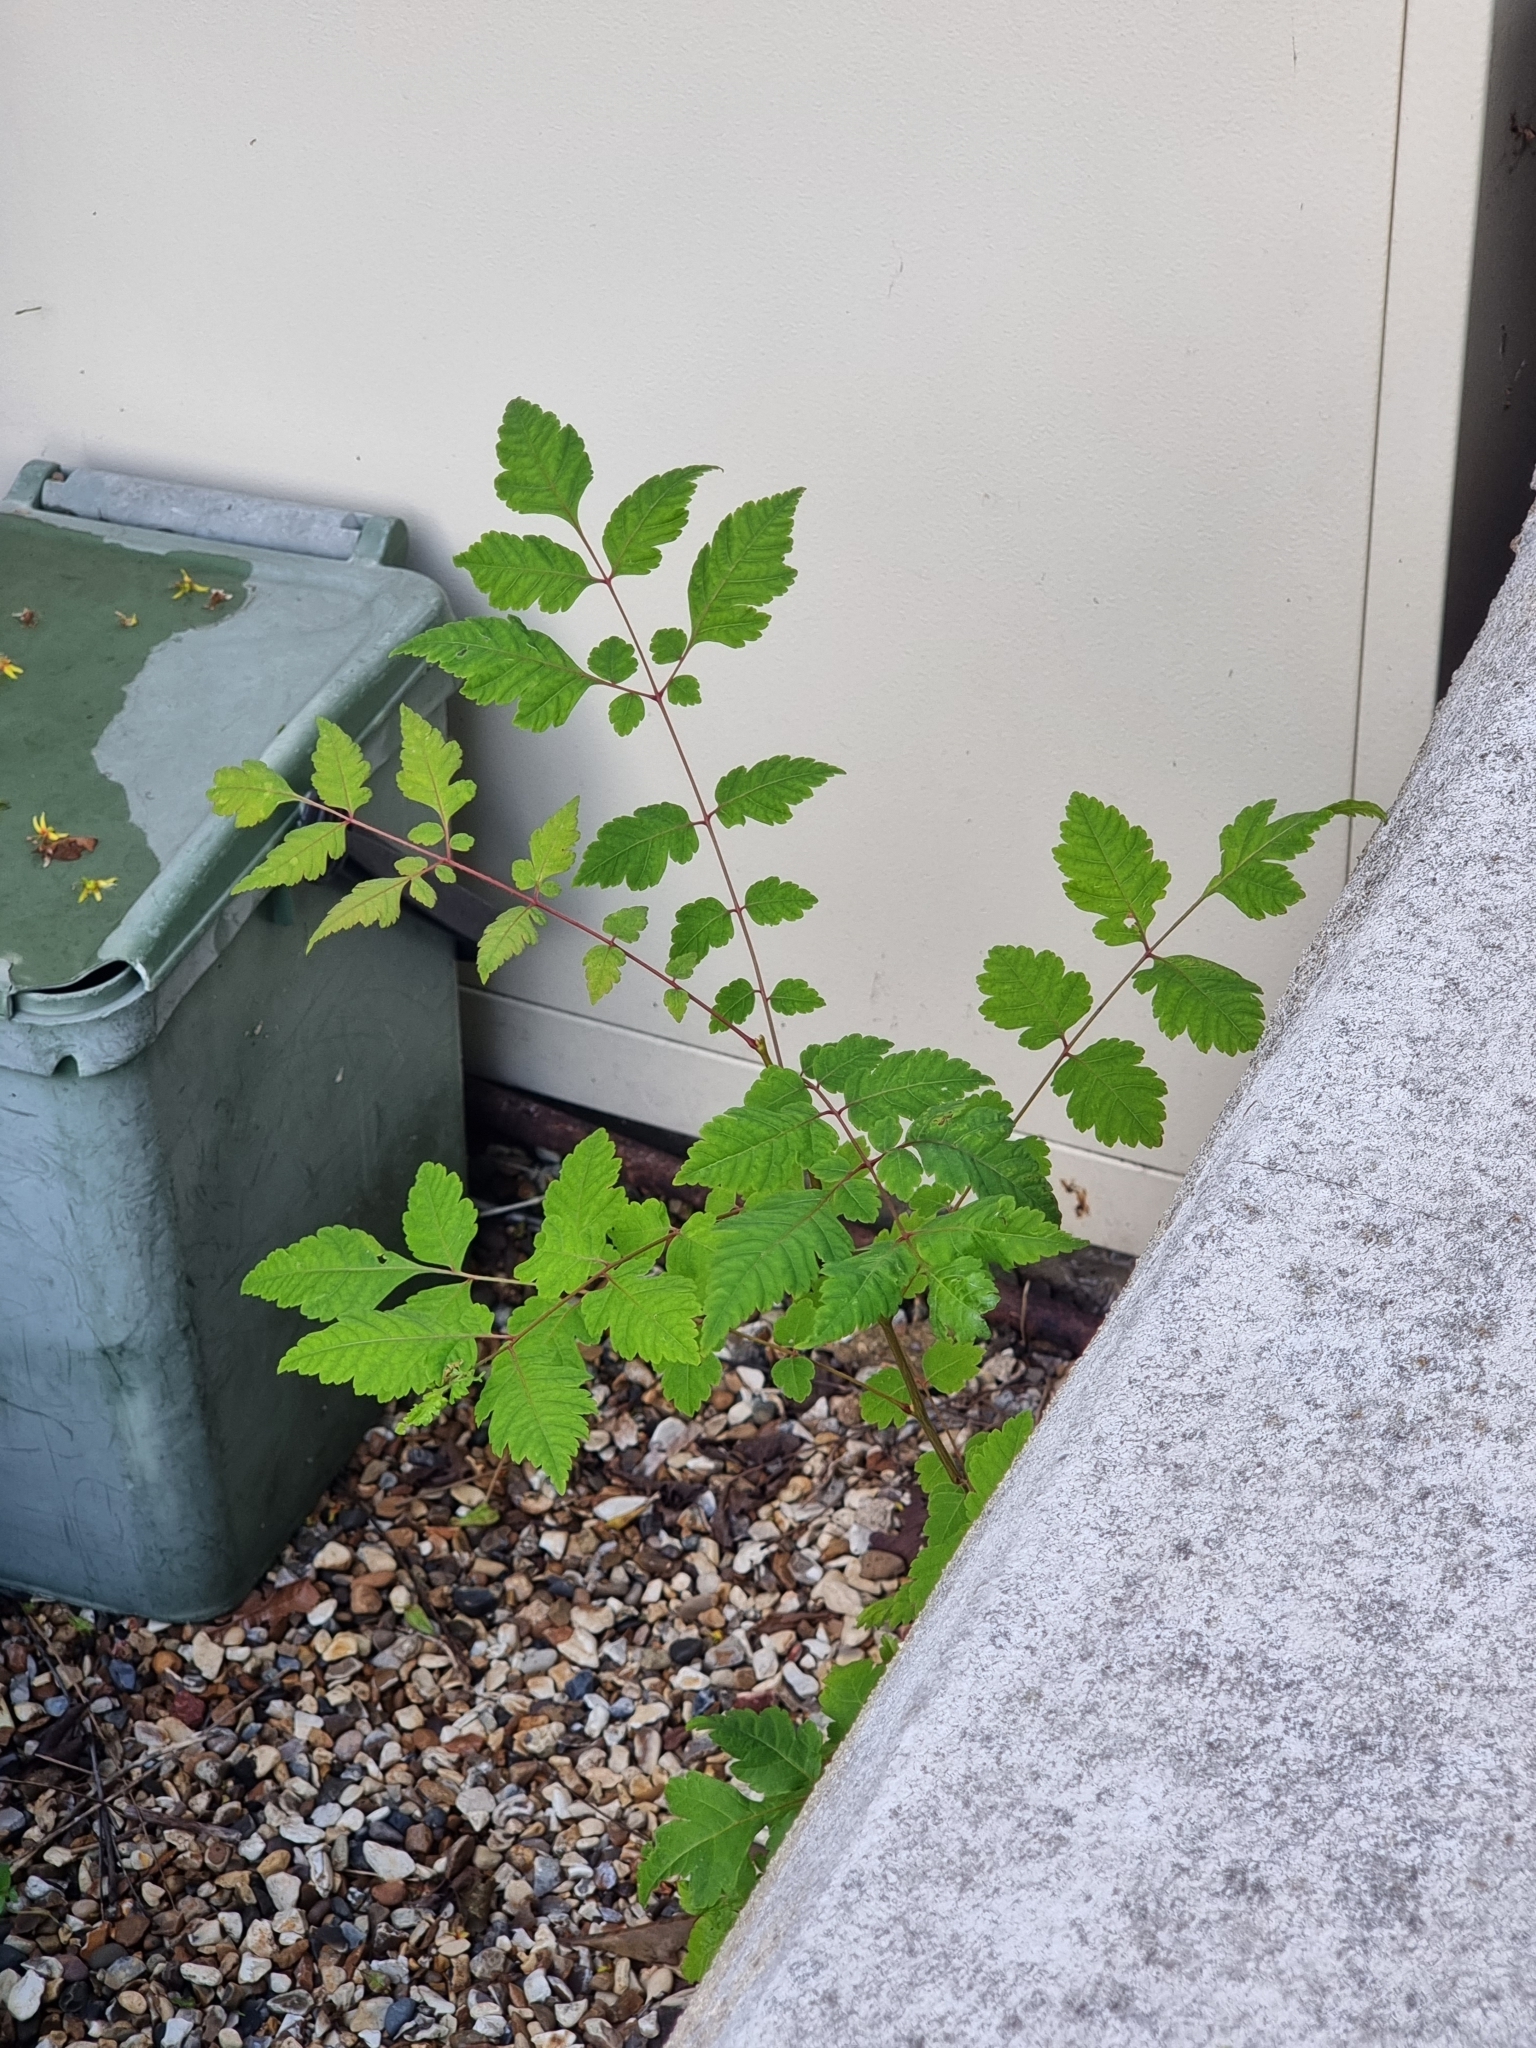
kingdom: Plantae
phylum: Tracheophyta
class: Magnoliopsida
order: Sapindales
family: Sapindaceae
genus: Koelreuteria
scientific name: Koelreuteria paniculata
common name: Pride-of-india
